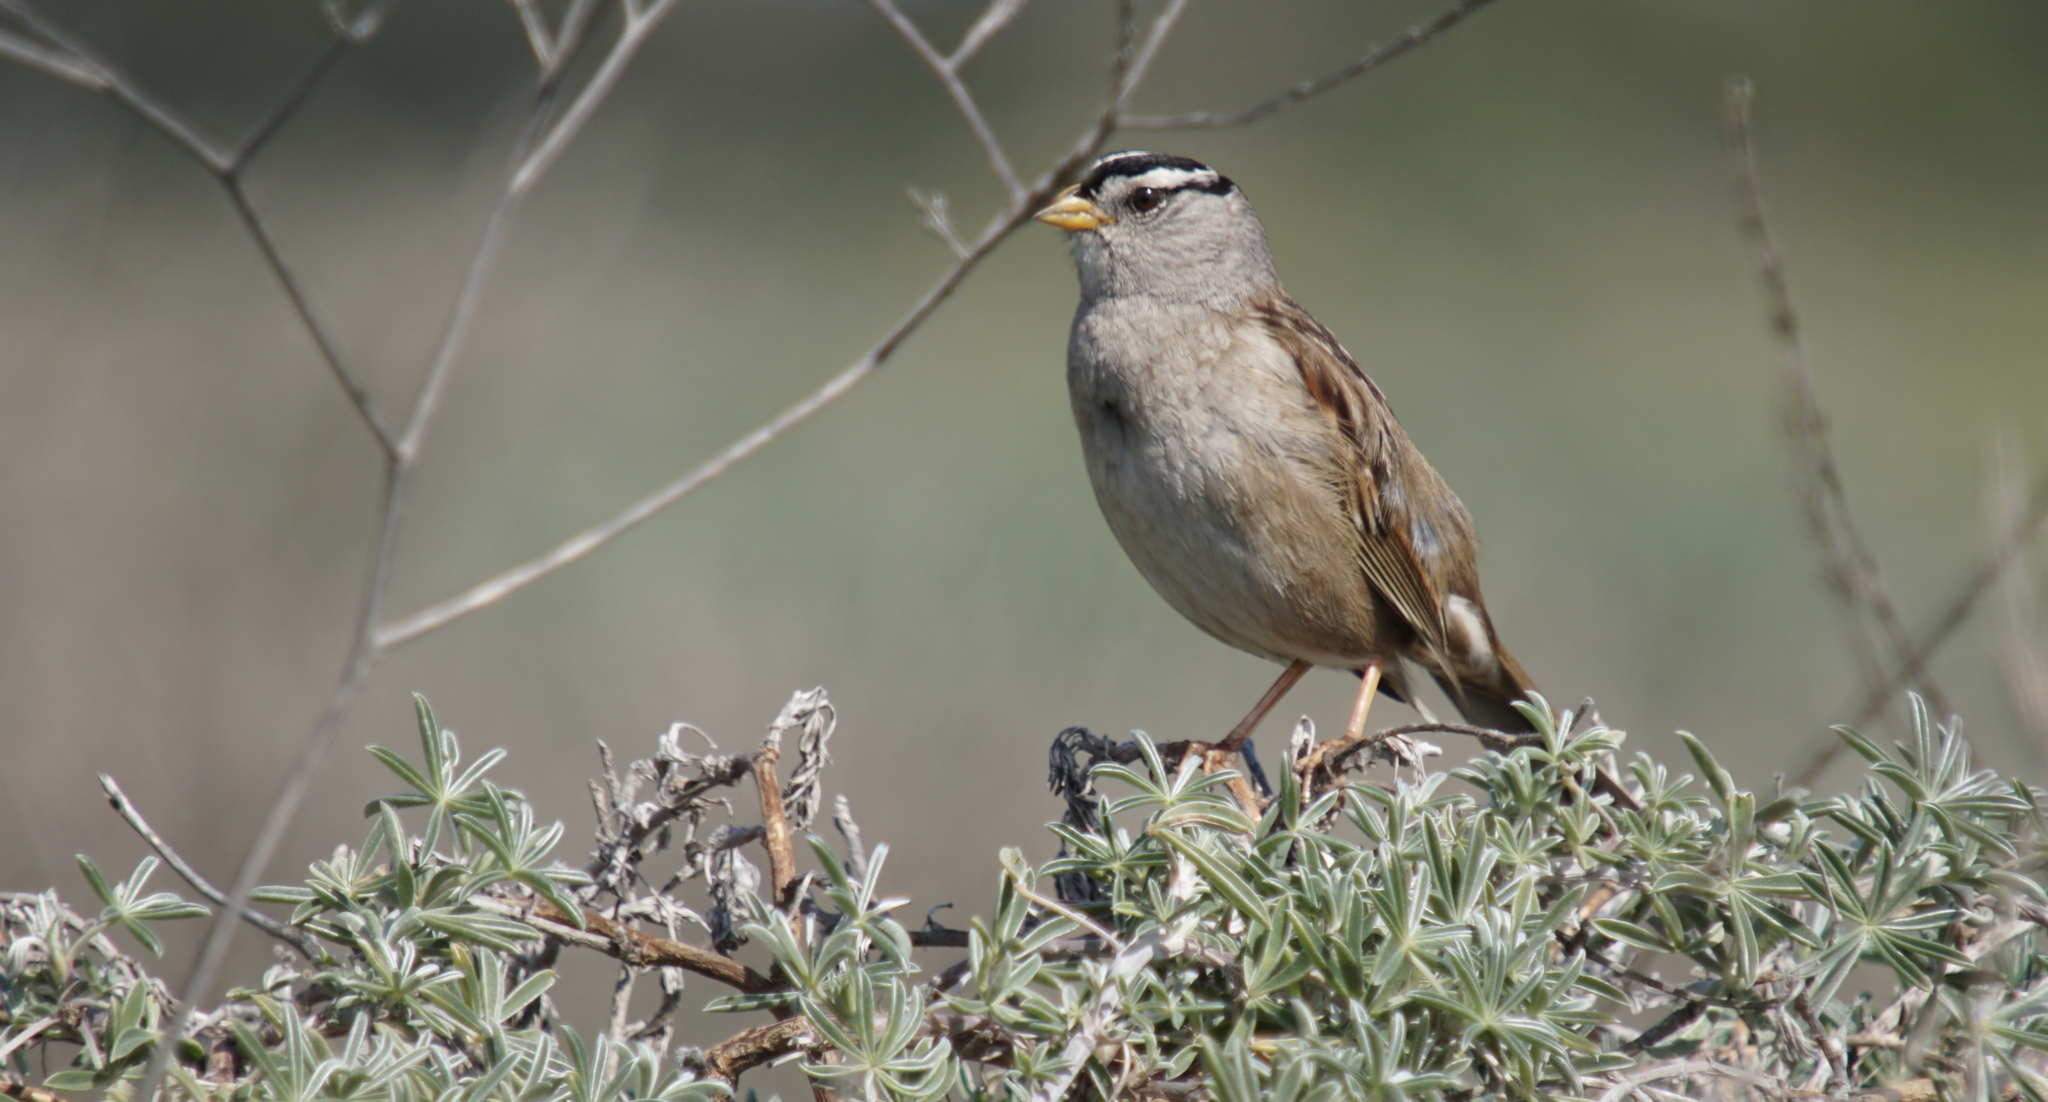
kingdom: Animalia
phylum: Chordata
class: Aves
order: Passeriformes
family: Passerellidae
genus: Zonotrichia
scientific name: Zonotrichia leucophrys
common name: White-crowned sparrow
